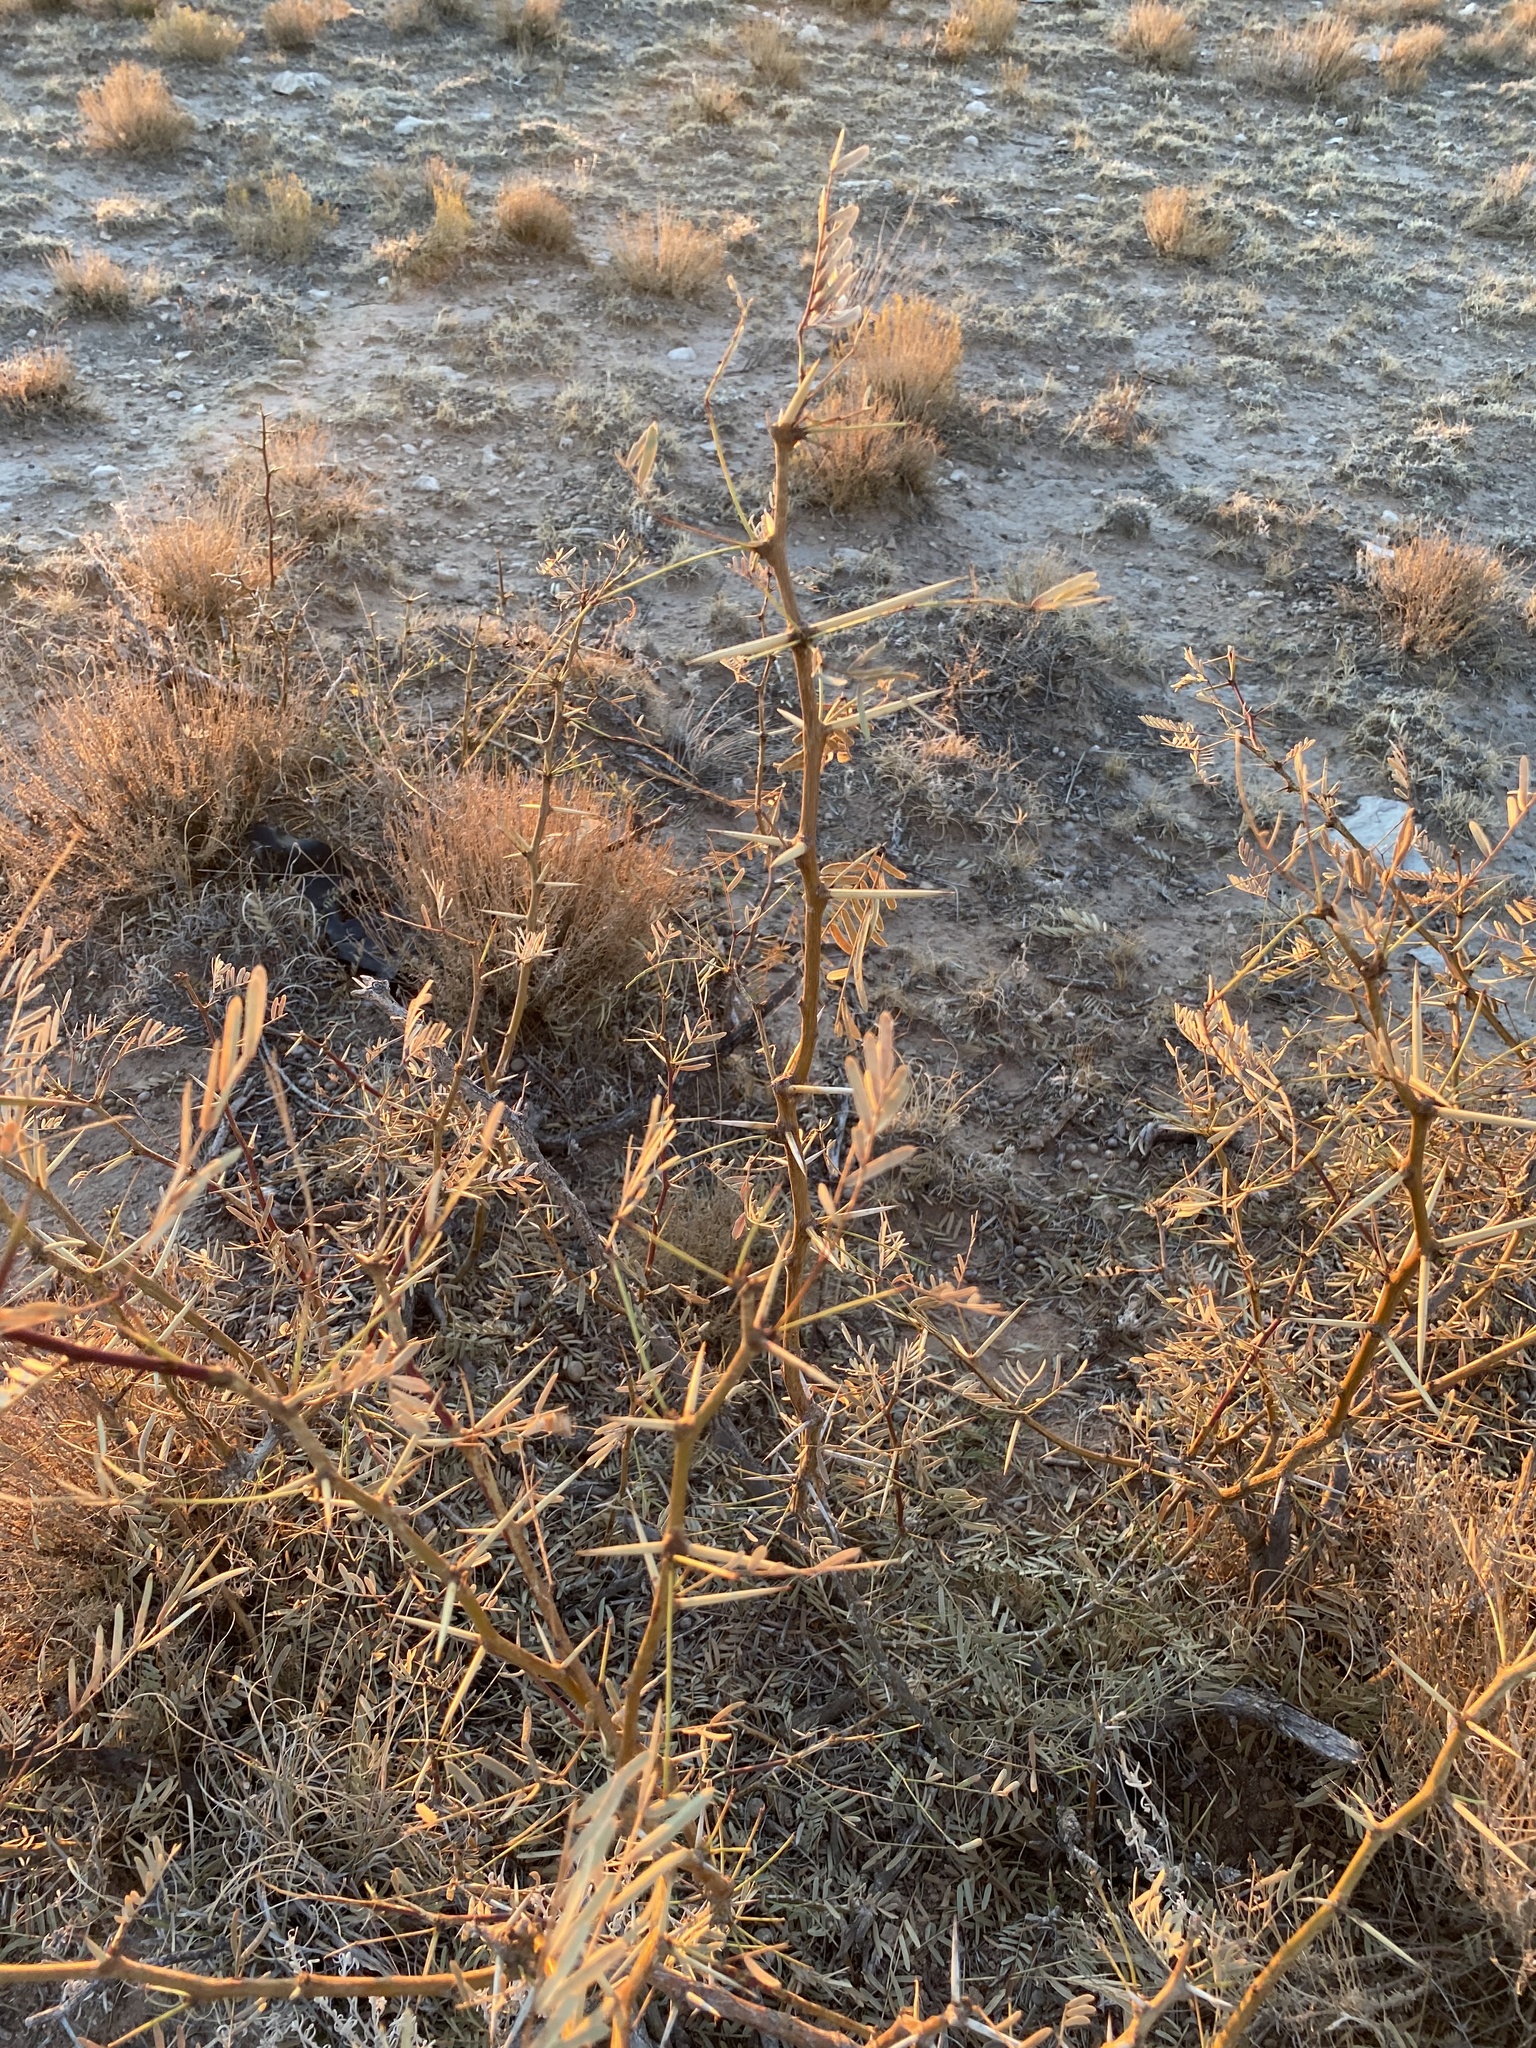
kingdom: Plantae
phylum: Tracheophyta
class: Magnoliopsida
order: Fabales
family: Fabaceae
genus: Prosopis
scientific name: Prosopis glandulosa
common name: Honey mesquite
